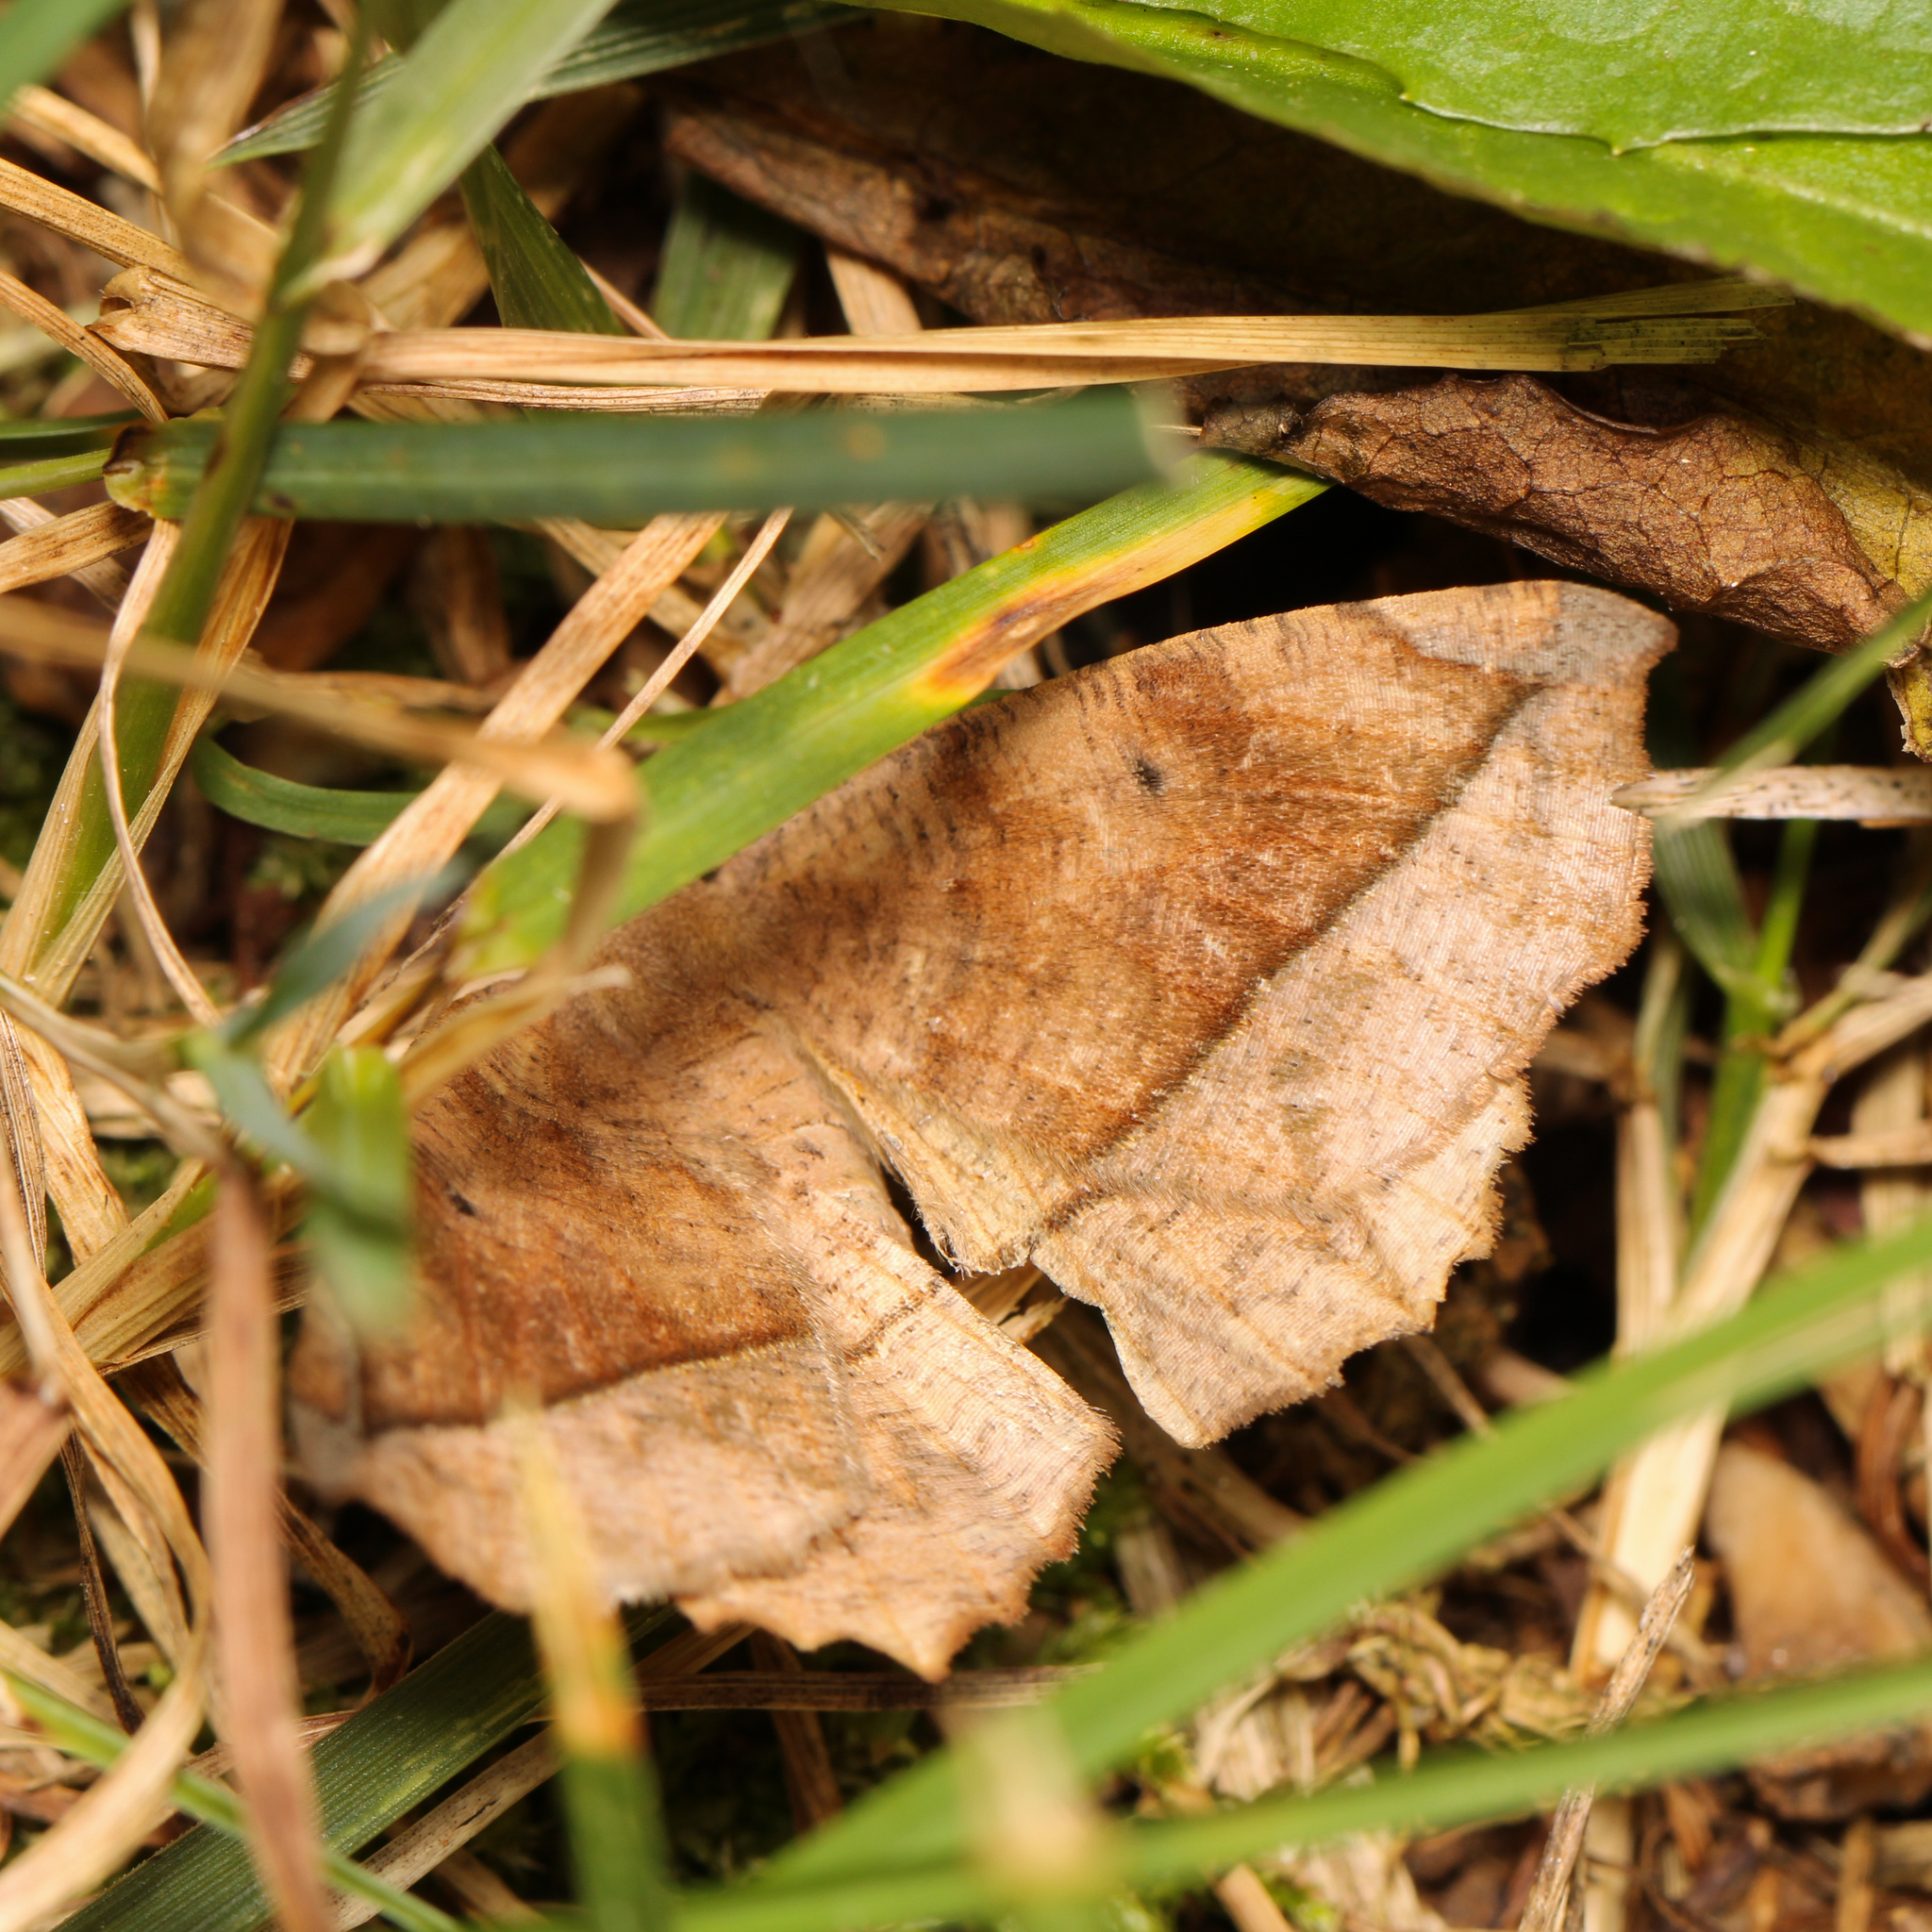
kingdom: Animalia
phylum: Arthropoda
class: Insecta
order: Lepidoptera
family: Geometridae
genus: Eutrapela
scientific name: Eutrapela clemataria
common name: Curved-toothed geometer
